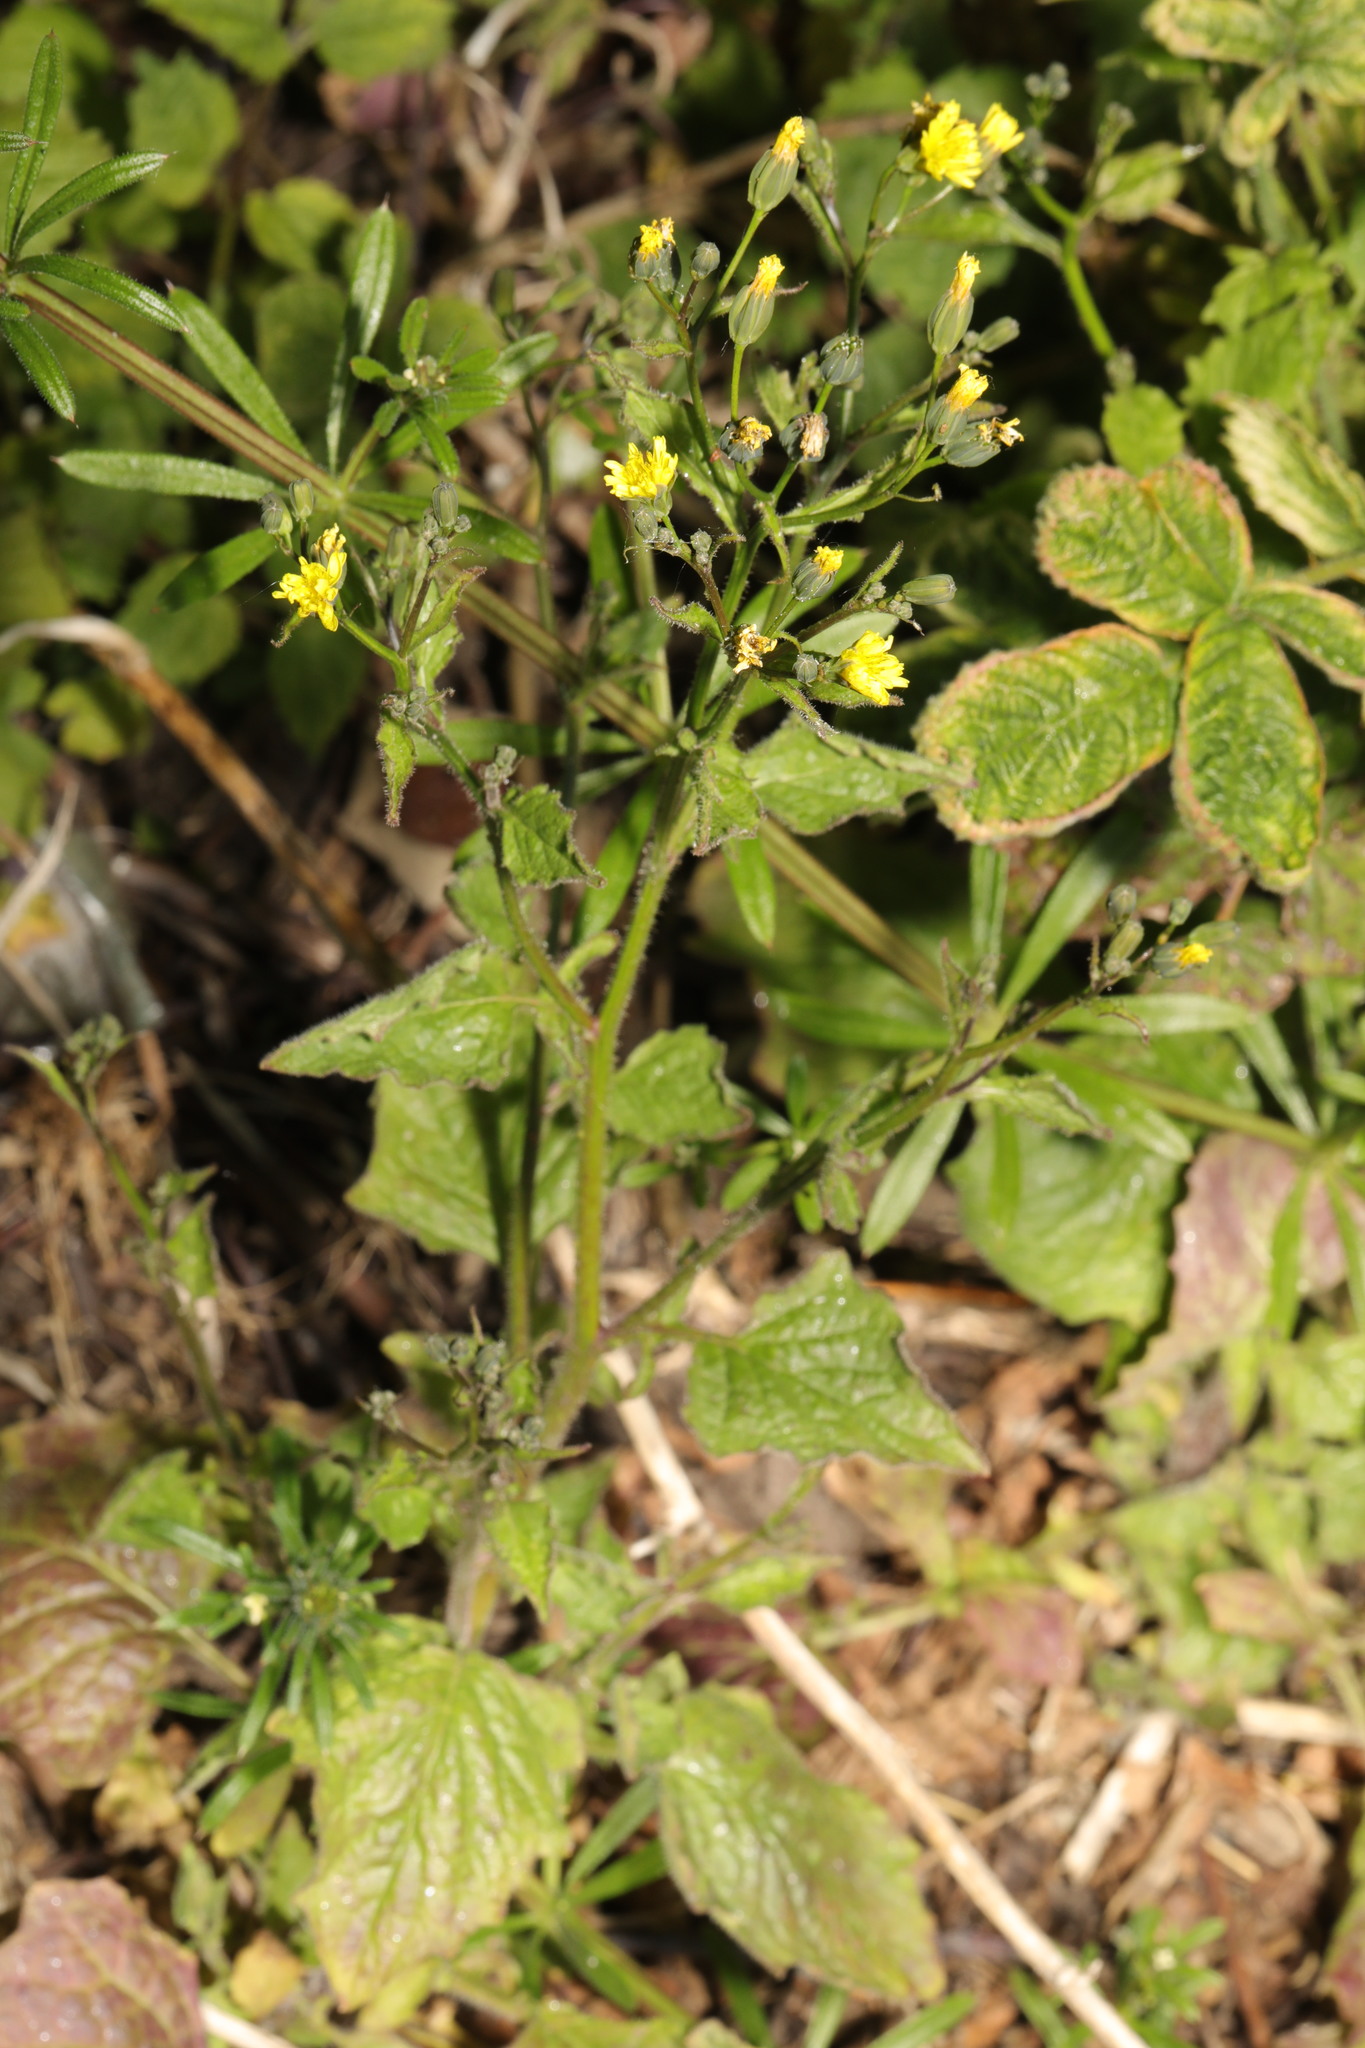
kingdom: Plantae
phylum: Tracheophyta
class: Magnoliopsida
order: Asterales
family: Asteraceae
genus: Lapsana
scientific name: Lapsana communis
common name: Nipplewort
